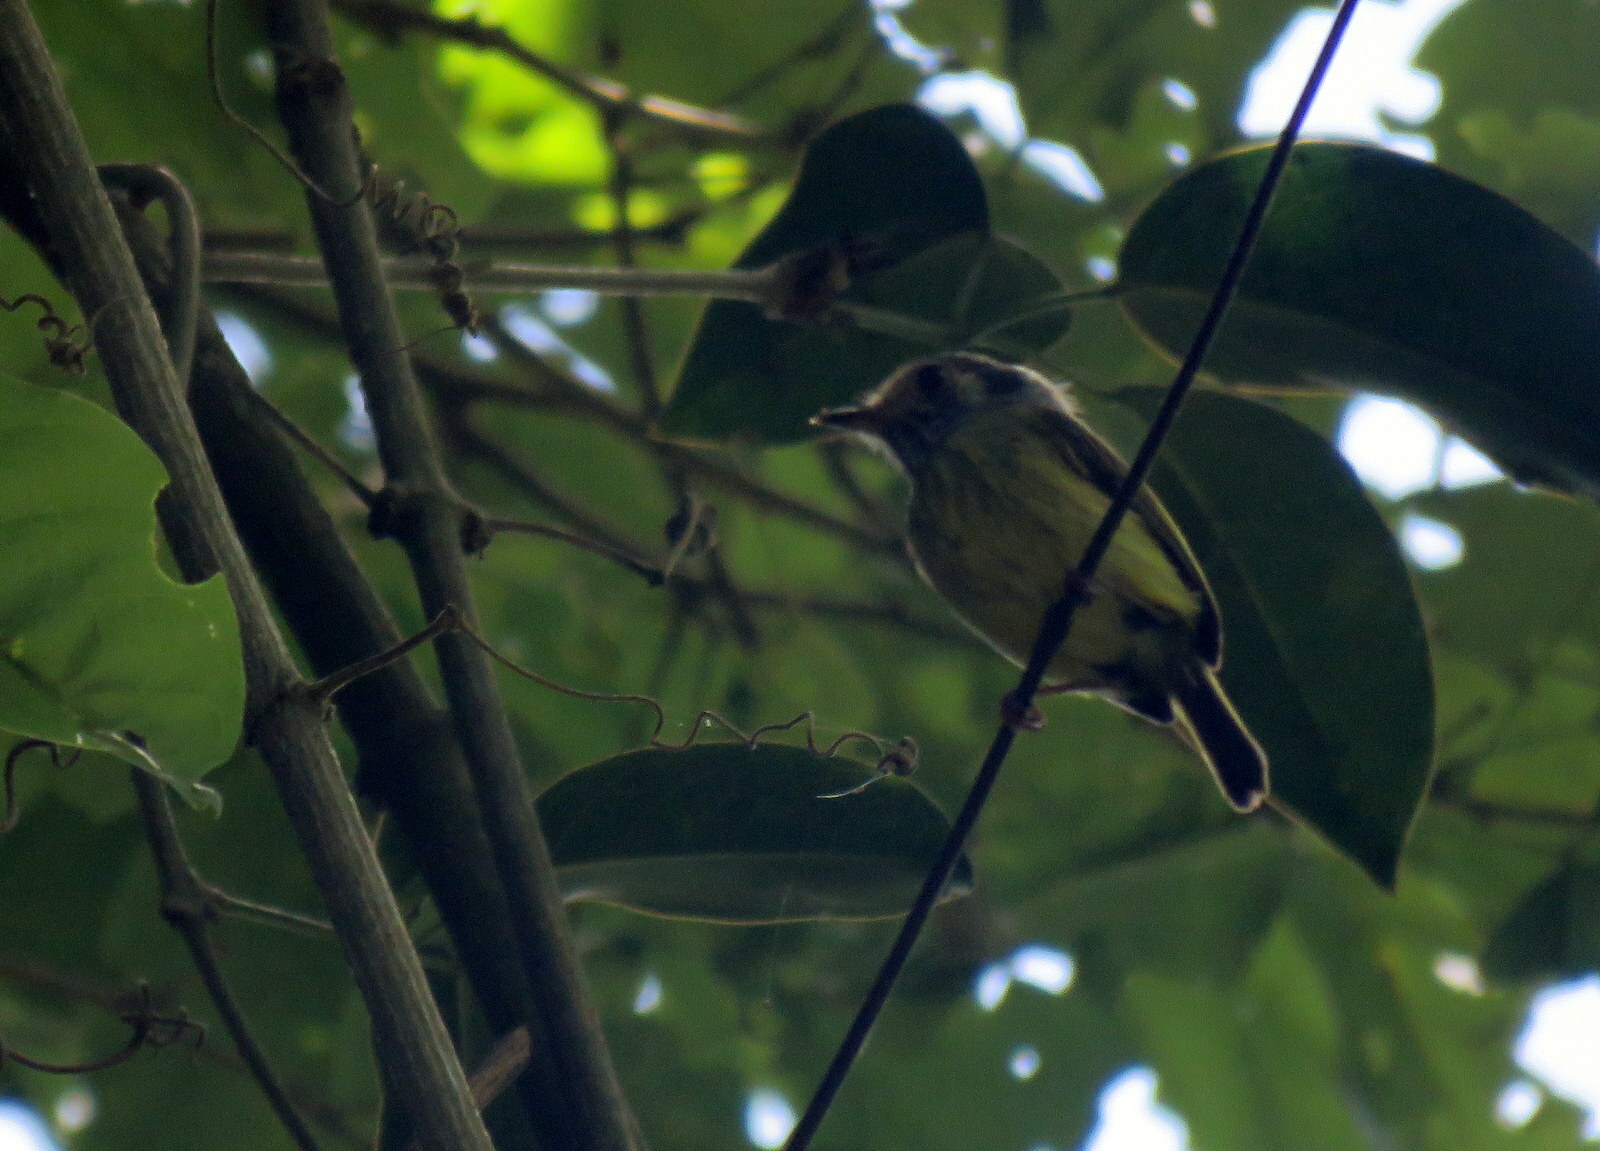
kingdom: Animalia
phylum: Chordata
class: Aves
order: Passeriformes
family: Tyrannidae
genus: Myiornis
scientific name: Myiornis auricularis
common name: Eared pygmy tyrant
